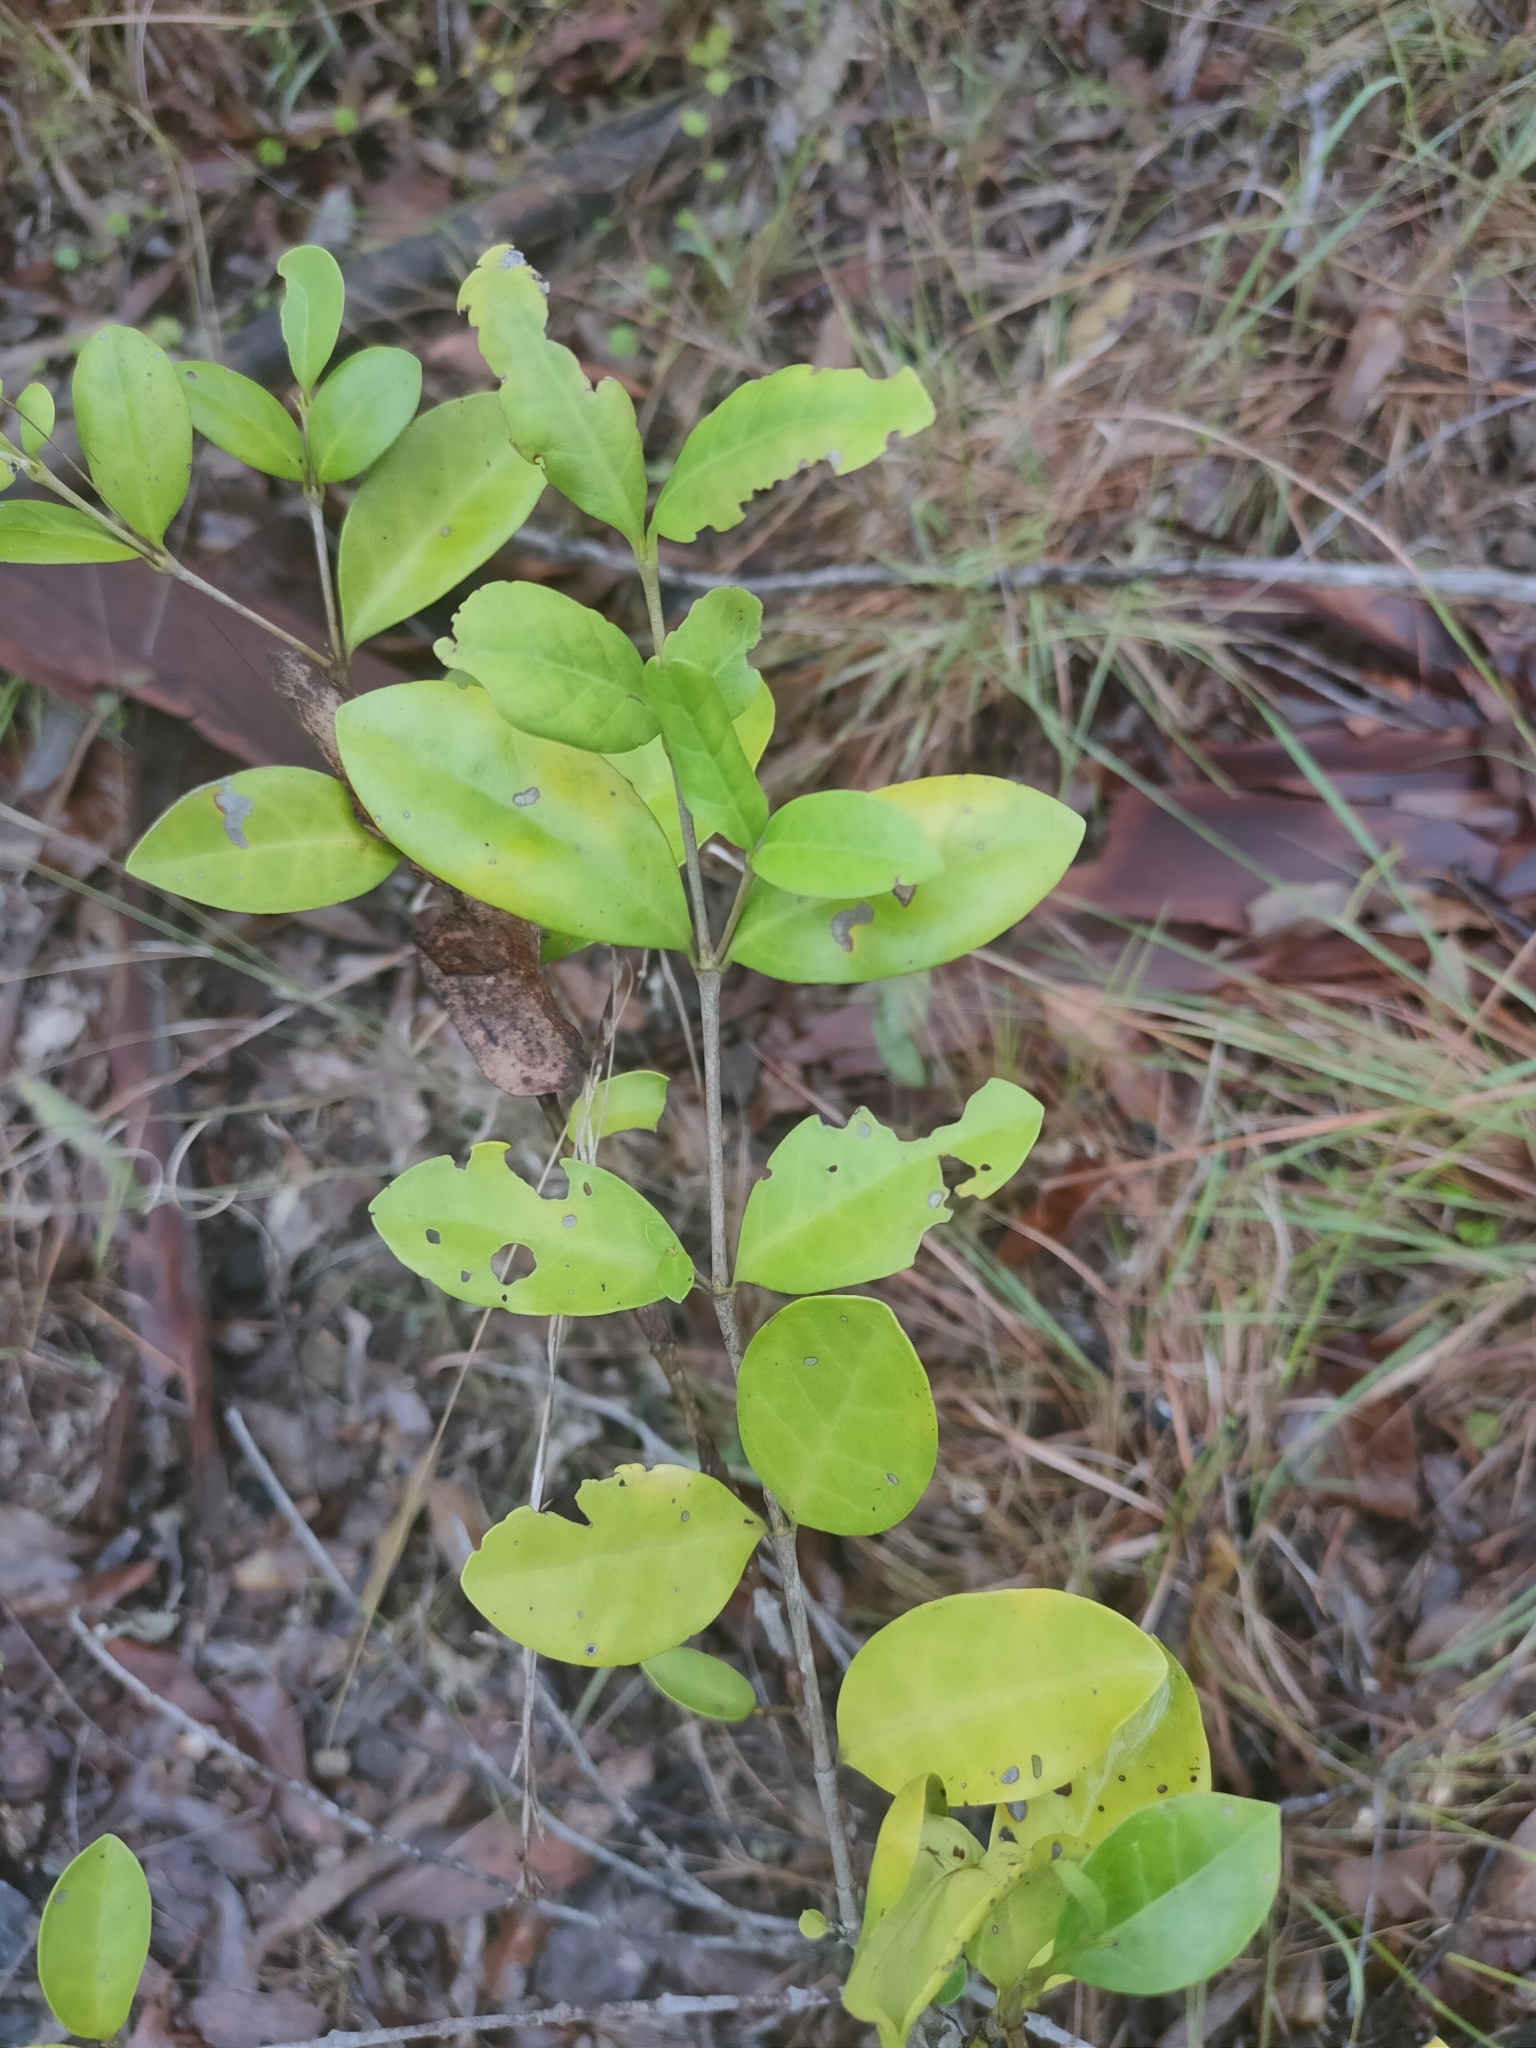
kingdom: Plantae
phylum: Tracheophyta
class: Magnoliopsida
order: Gentianales
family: Rubiaceae
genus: Cyclophyllum
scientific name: Cyclophyllum coprosmoides
